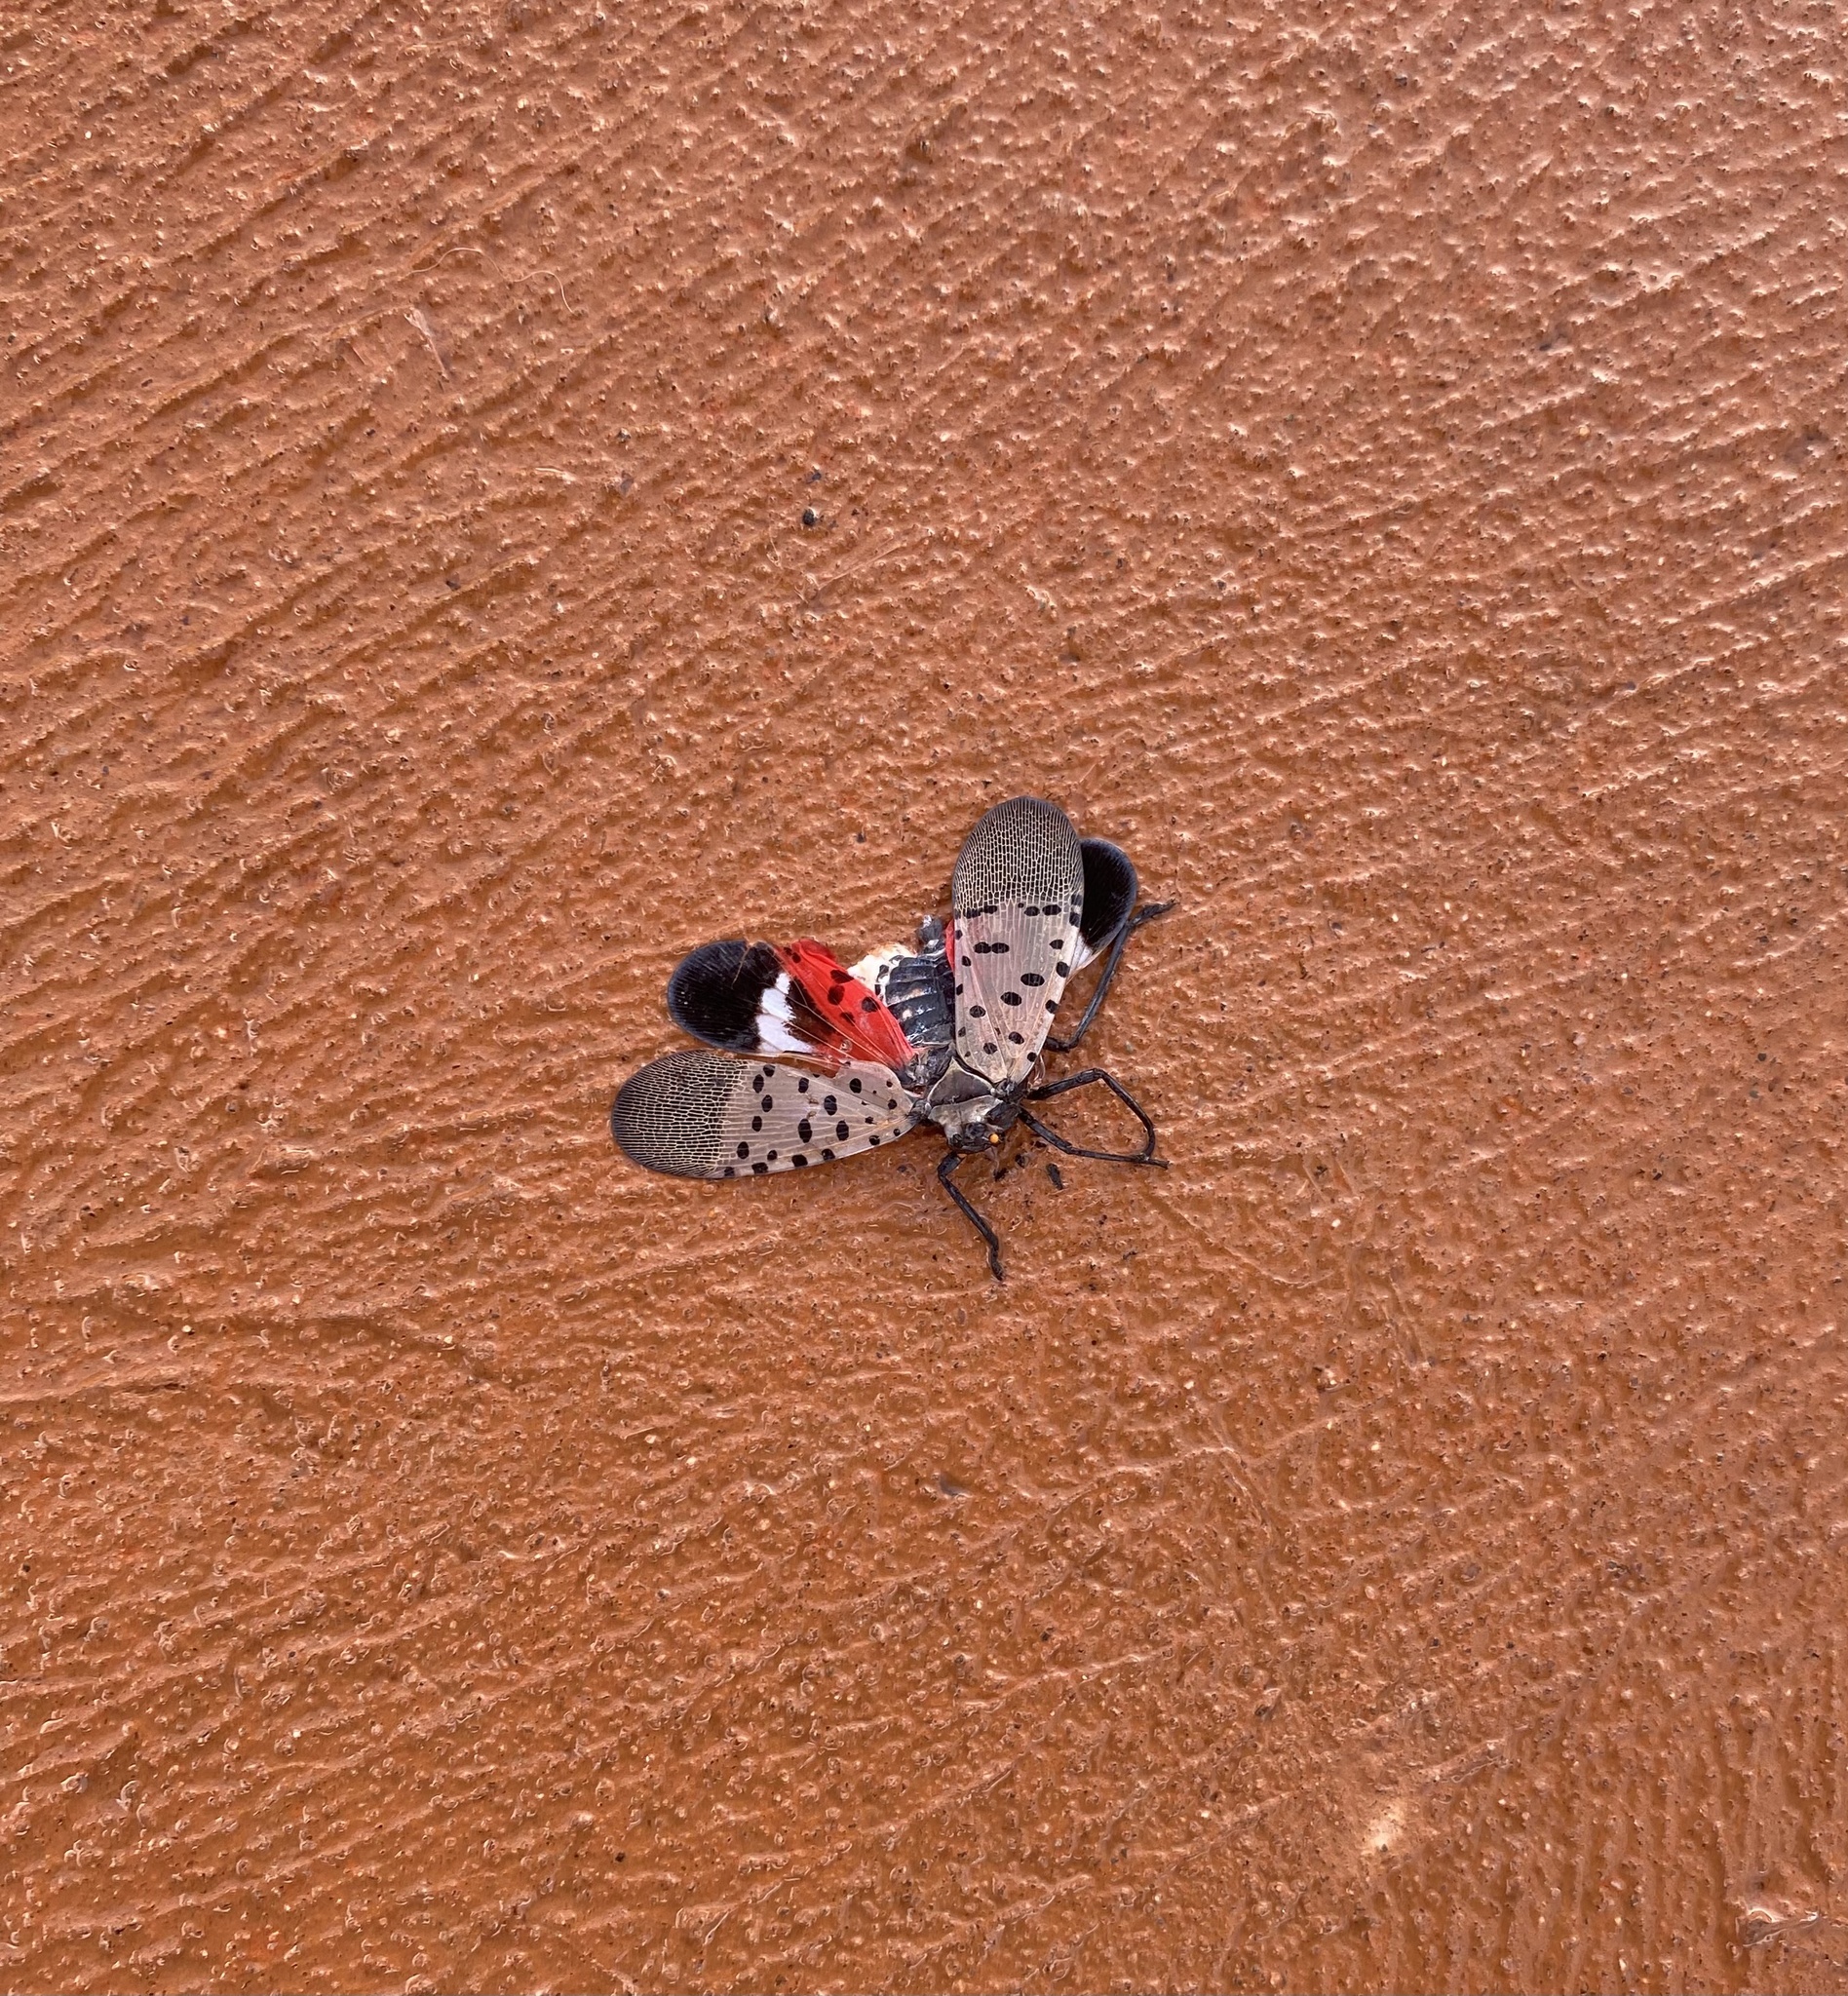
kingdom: Animalia
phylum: Arthropoda
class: Insecta
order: Hemiptera
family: Fulgoridae
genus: Lycorma
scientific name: Lycorma delicatula
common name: Spotted lanternfly
